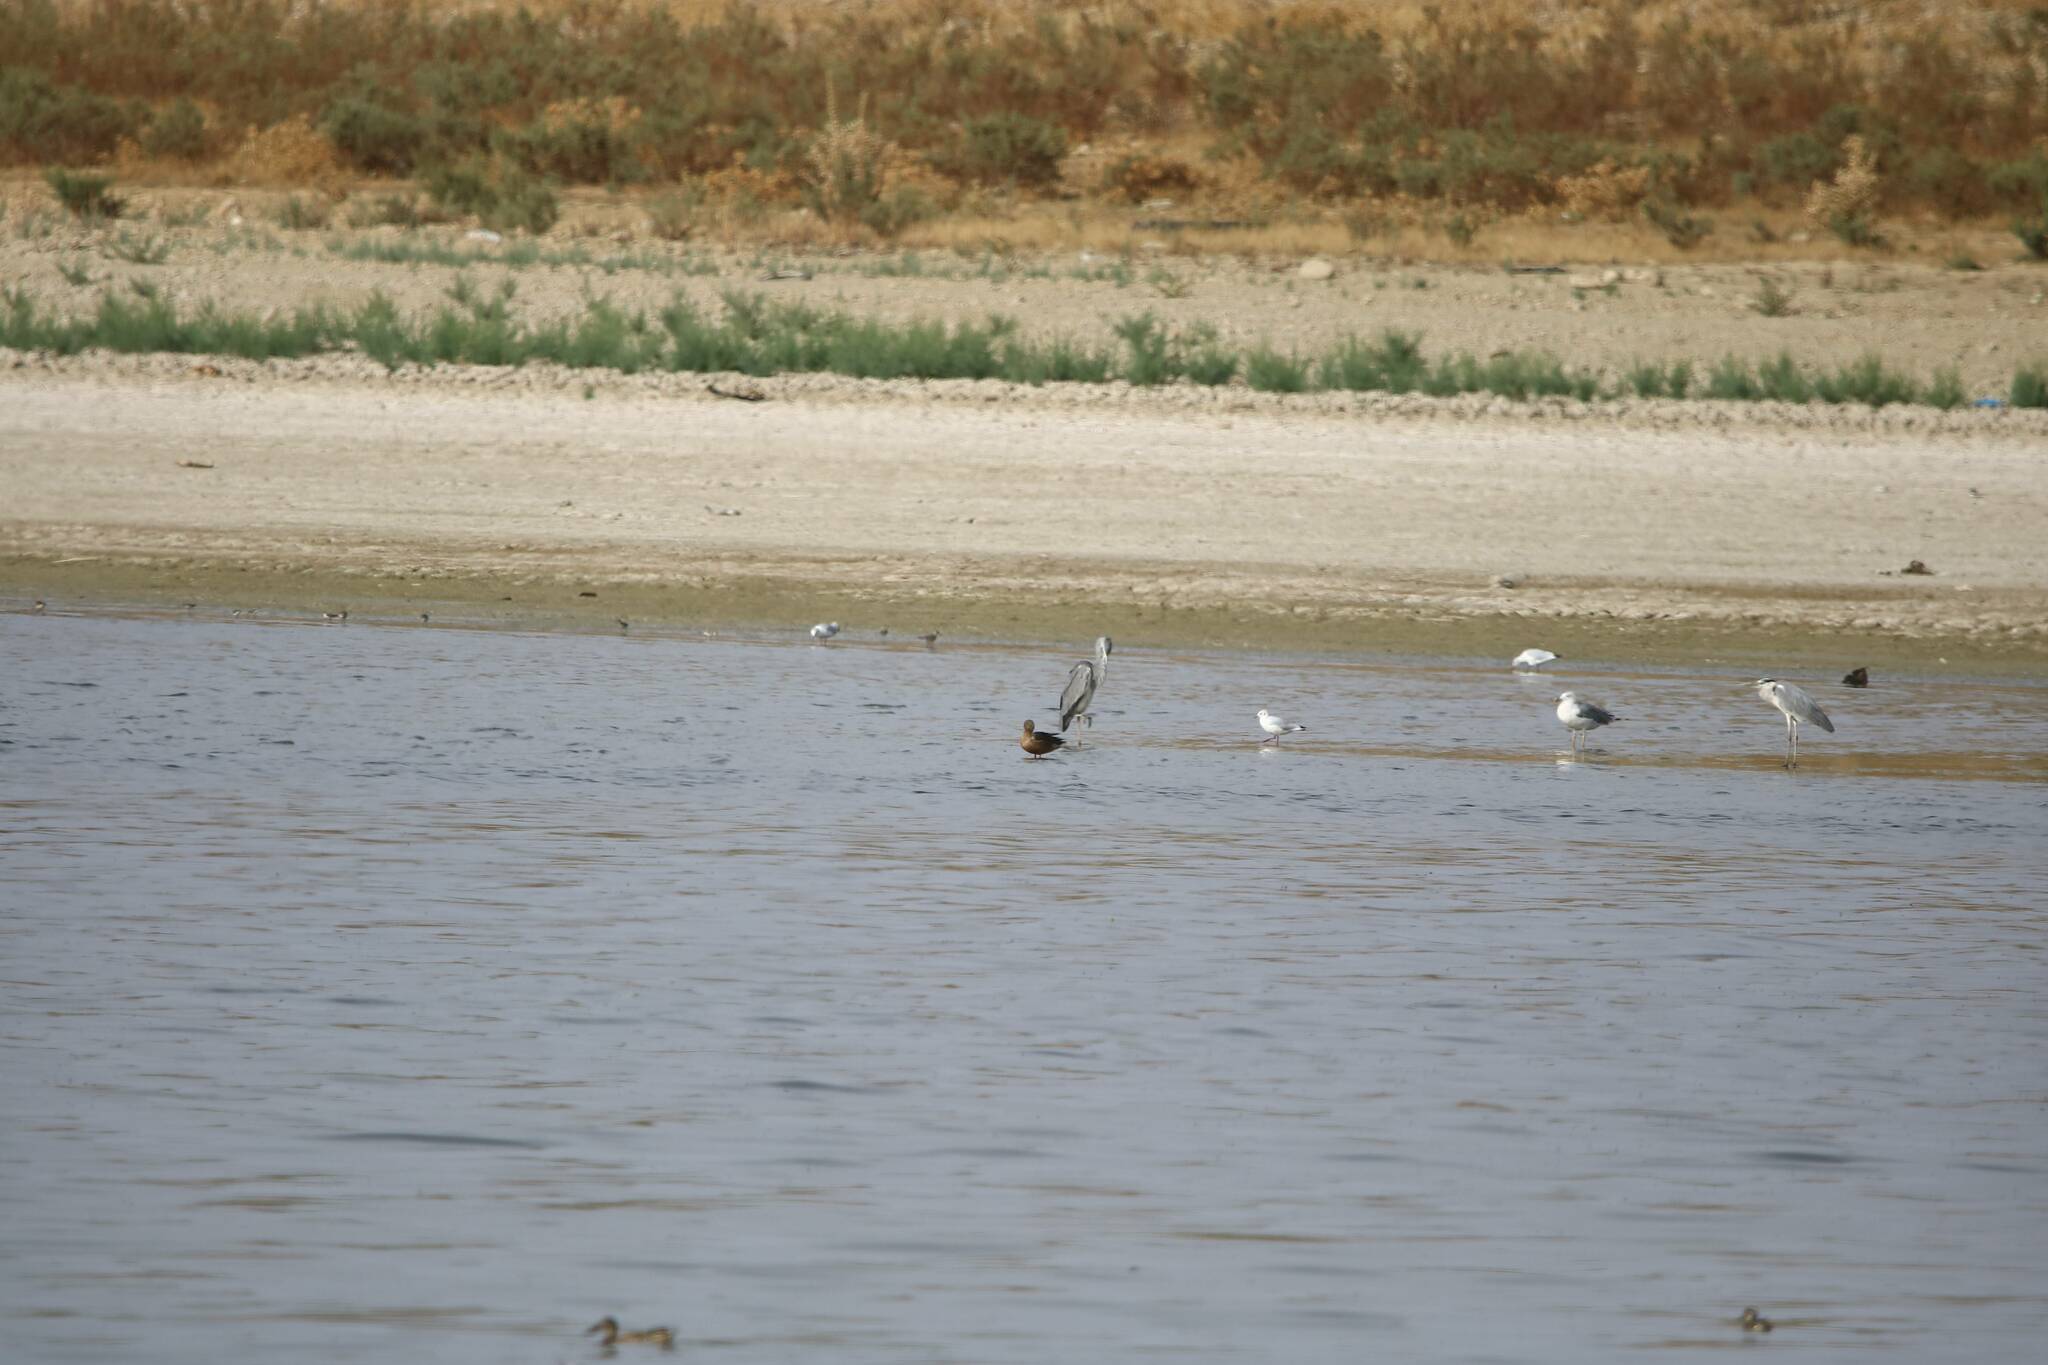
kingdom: Animalia
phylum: Chordata
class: Aves
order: Pelecaniformes
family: Ardeidae
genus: Ardea
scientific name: Ardea cinerea
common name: Grey heron
